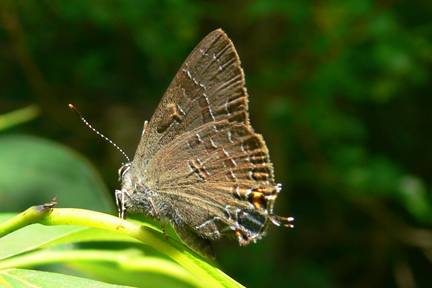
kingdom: Animalia
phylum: Arthropoda
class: Insecta
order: Lepidoptera
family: Lycaenidae
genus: Satyrium
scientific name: Satyrium calanus
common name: Banded hairstreak
